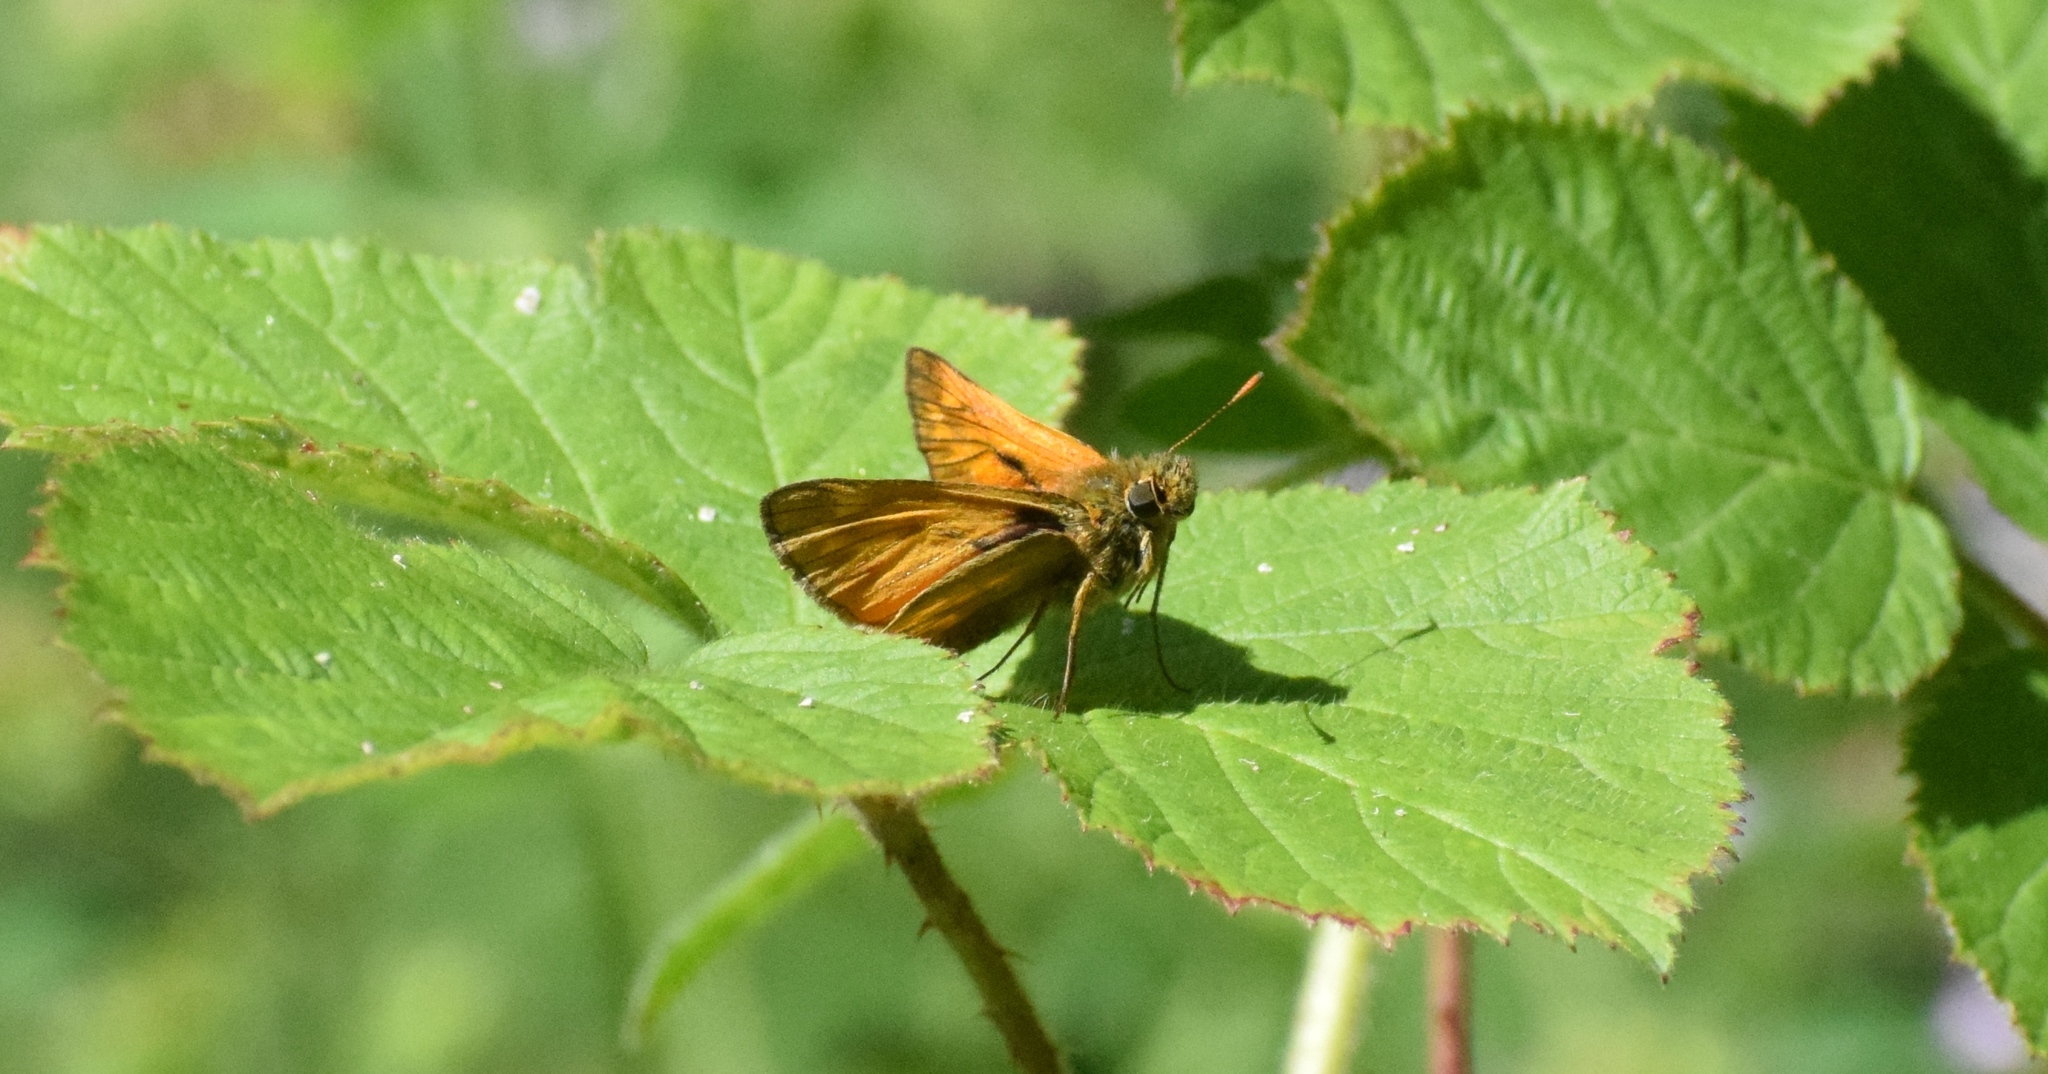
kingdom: Animalia
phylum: Arthropoda
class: Insecta
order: Lepidoptera
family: Hesperiidae
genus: Ochlodes
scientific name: Ochlodes venata
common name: Large skipper
